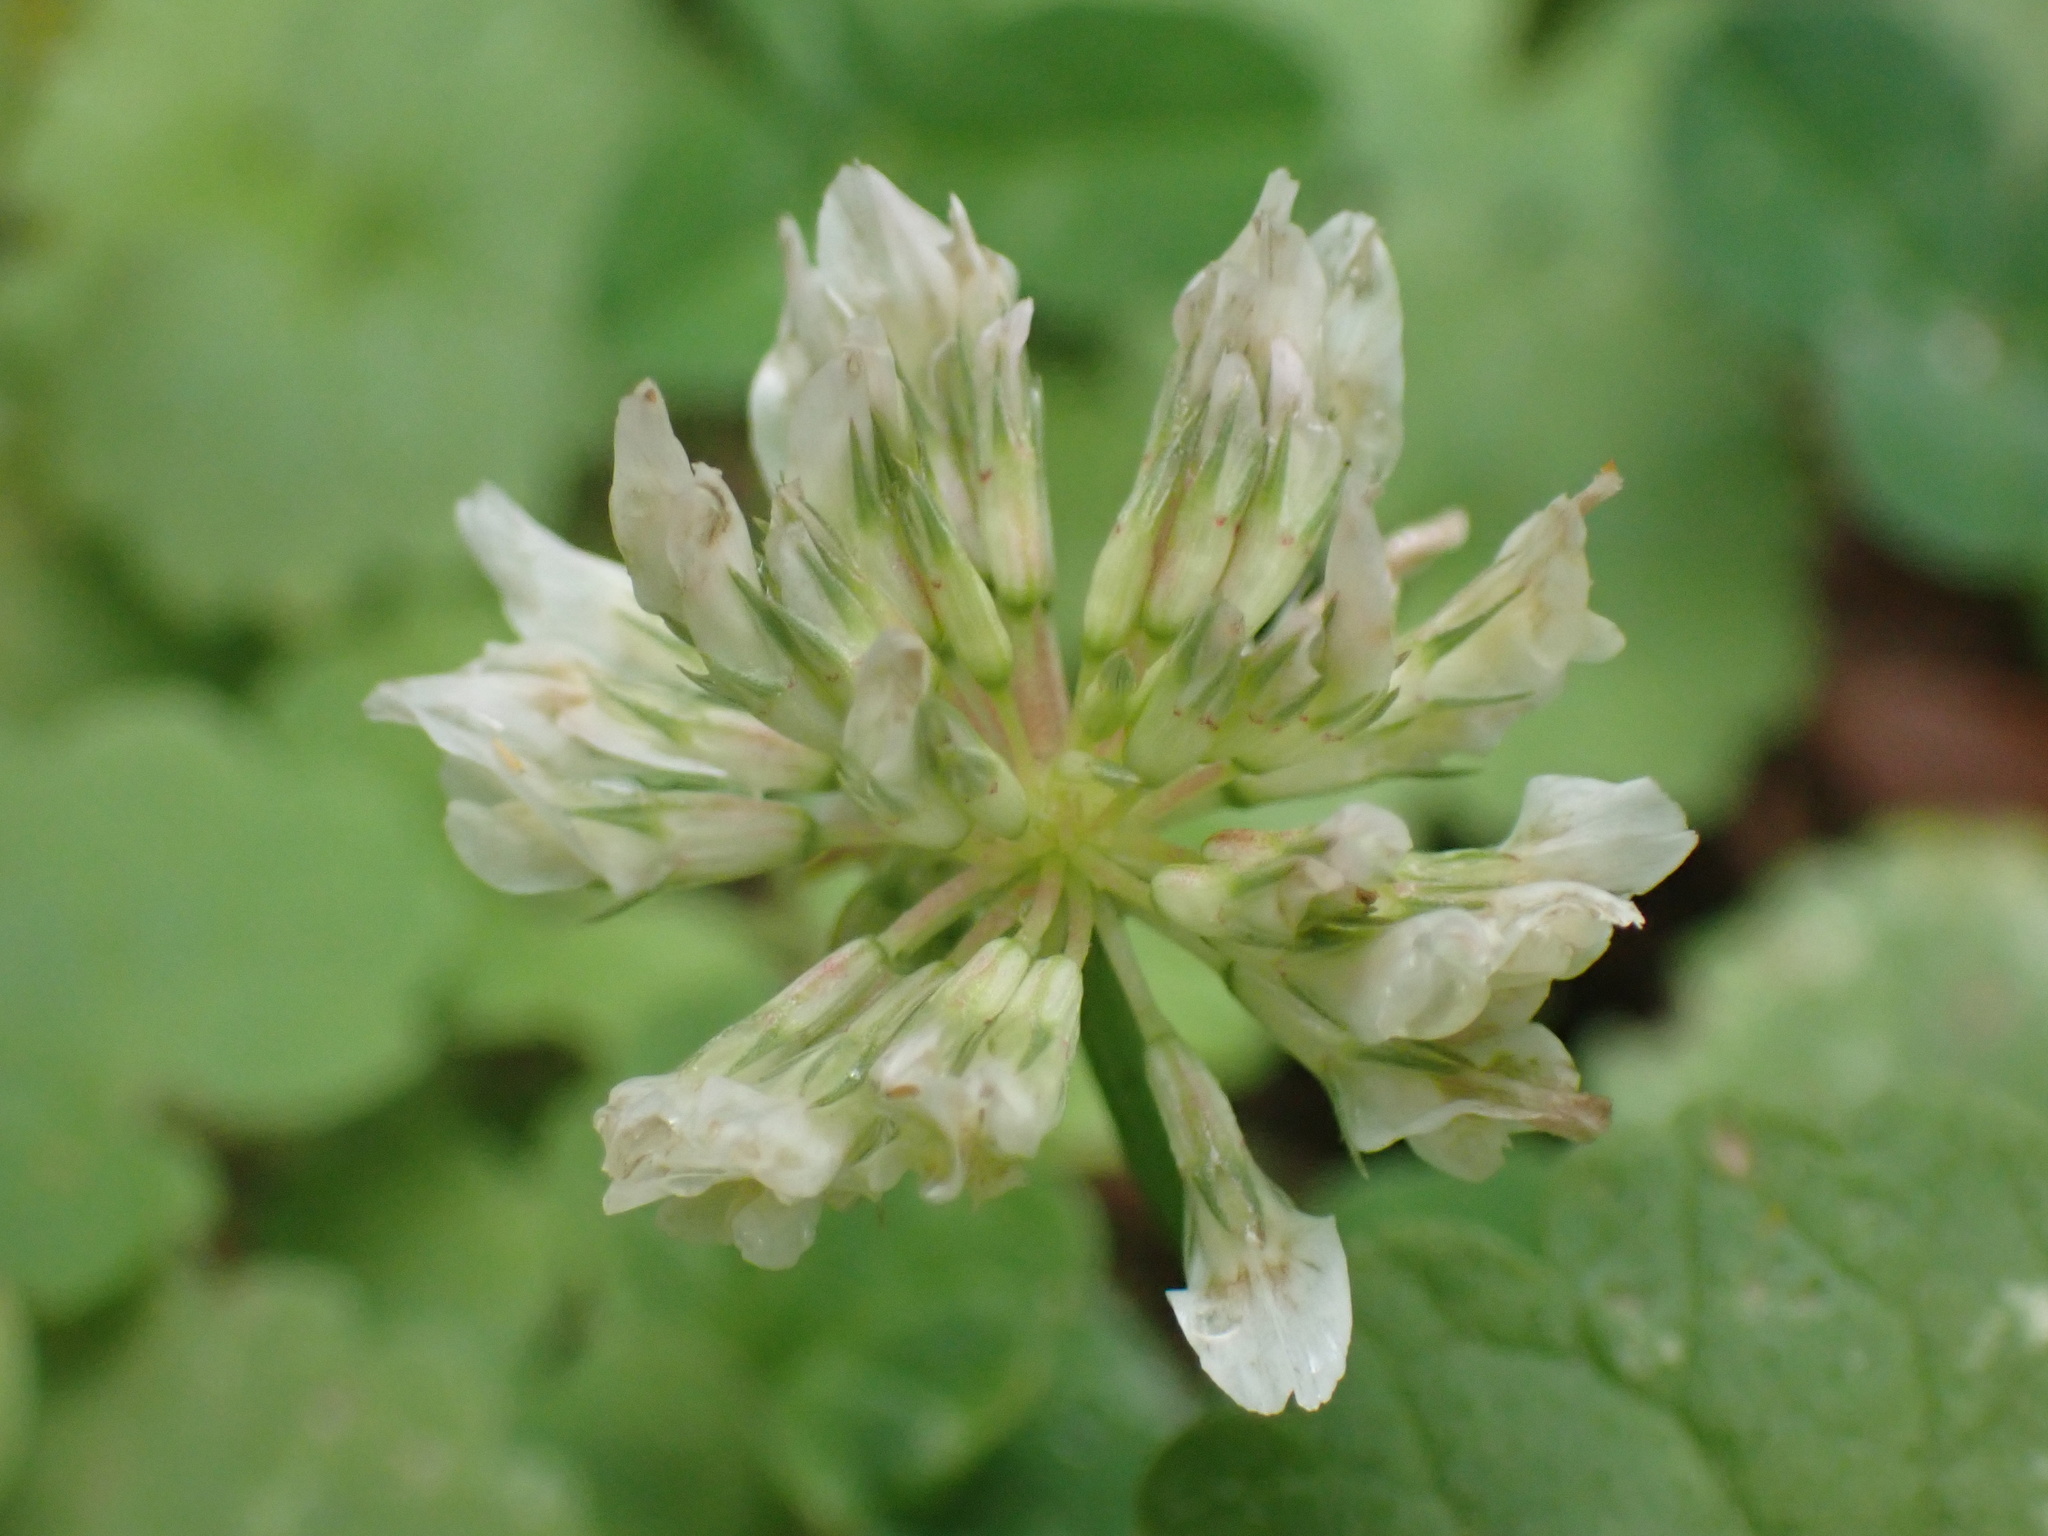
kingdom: Plantae
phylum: Tracheophyta
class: Magnoliopsida
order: Fabales
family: Fabaceae
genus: Trifolium
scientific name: Trifolium repens
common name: White clover
